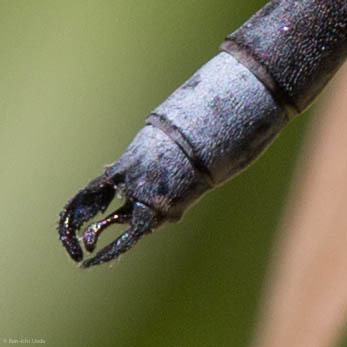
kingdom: Animalia
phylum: Arthropoda
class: Insecta
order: Odonata
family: Lestidae
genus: Lestes
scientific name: Lestes stultus
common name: Black spreadwing
